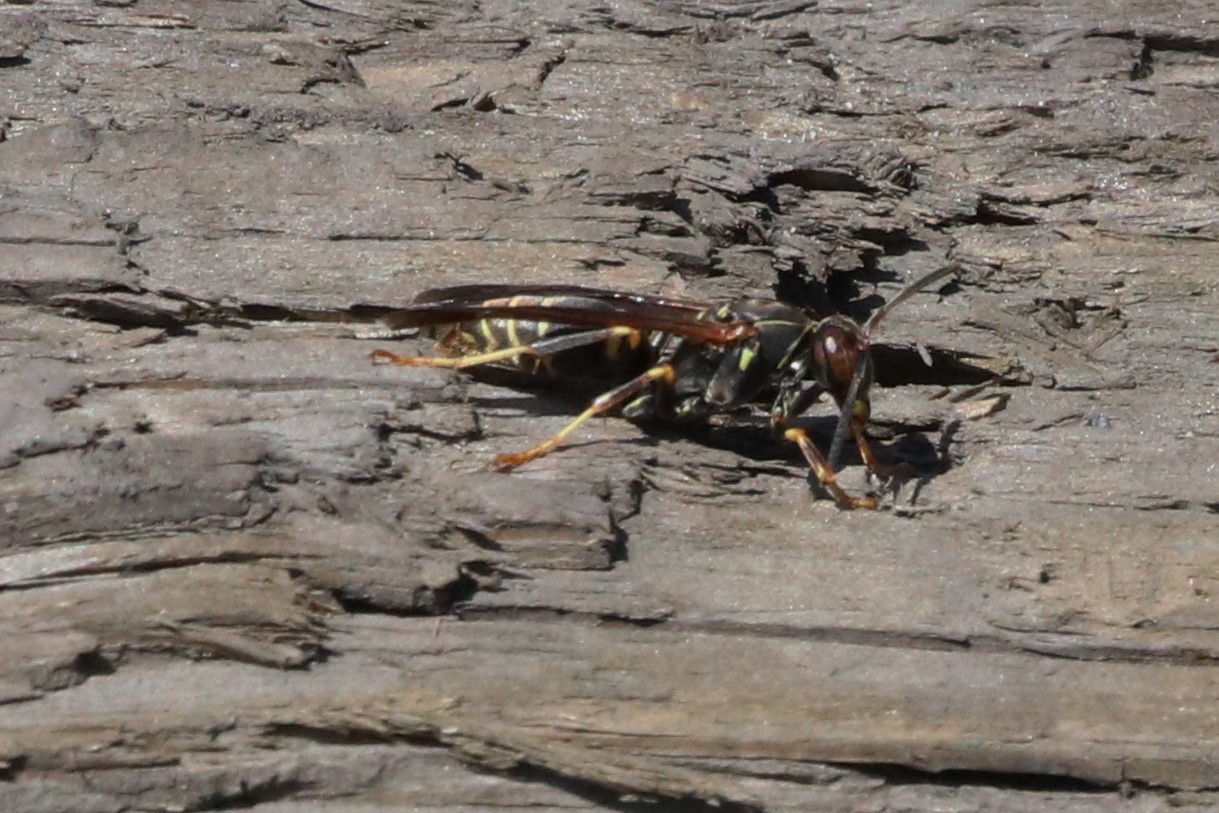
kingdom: Animalia
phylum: Arthropoda
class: Insecta
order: Hymenoptera
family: Eumenidae
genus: Polistes
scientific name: Polistes fuscatus
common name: Dark paper wasp
